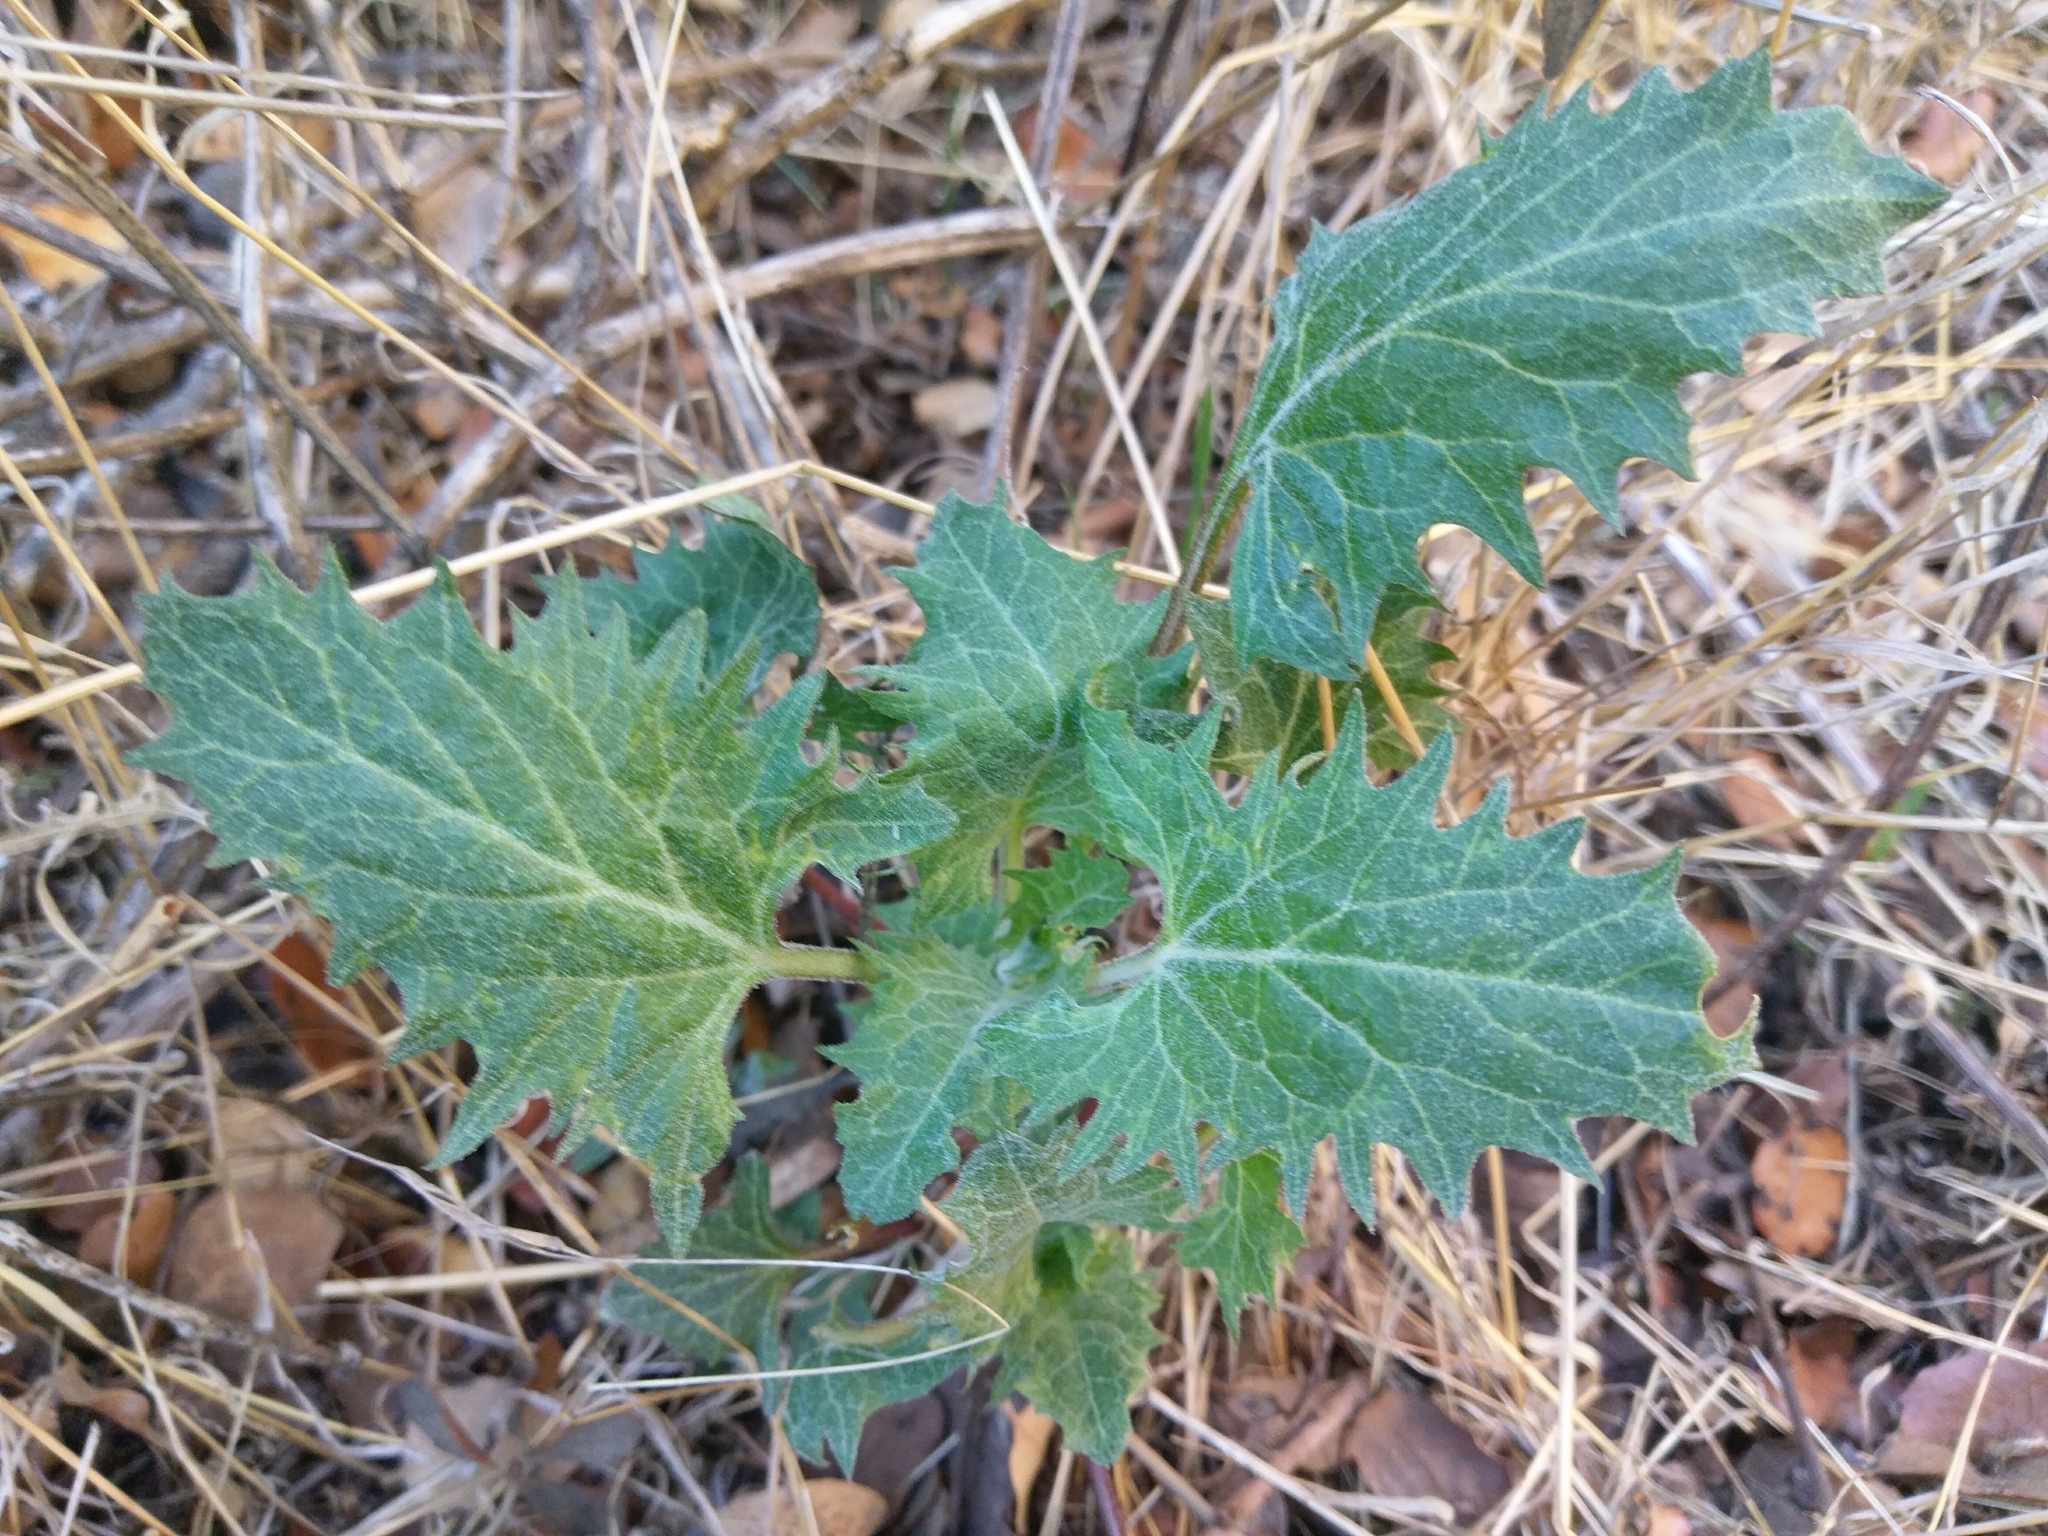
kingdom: Plantae
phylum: Tracheophyta
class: Magnoliopsida
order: Caryophyllales
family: Amaranthaceae
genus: Blitum
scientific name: Blitum californicum
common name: California goosefoot
